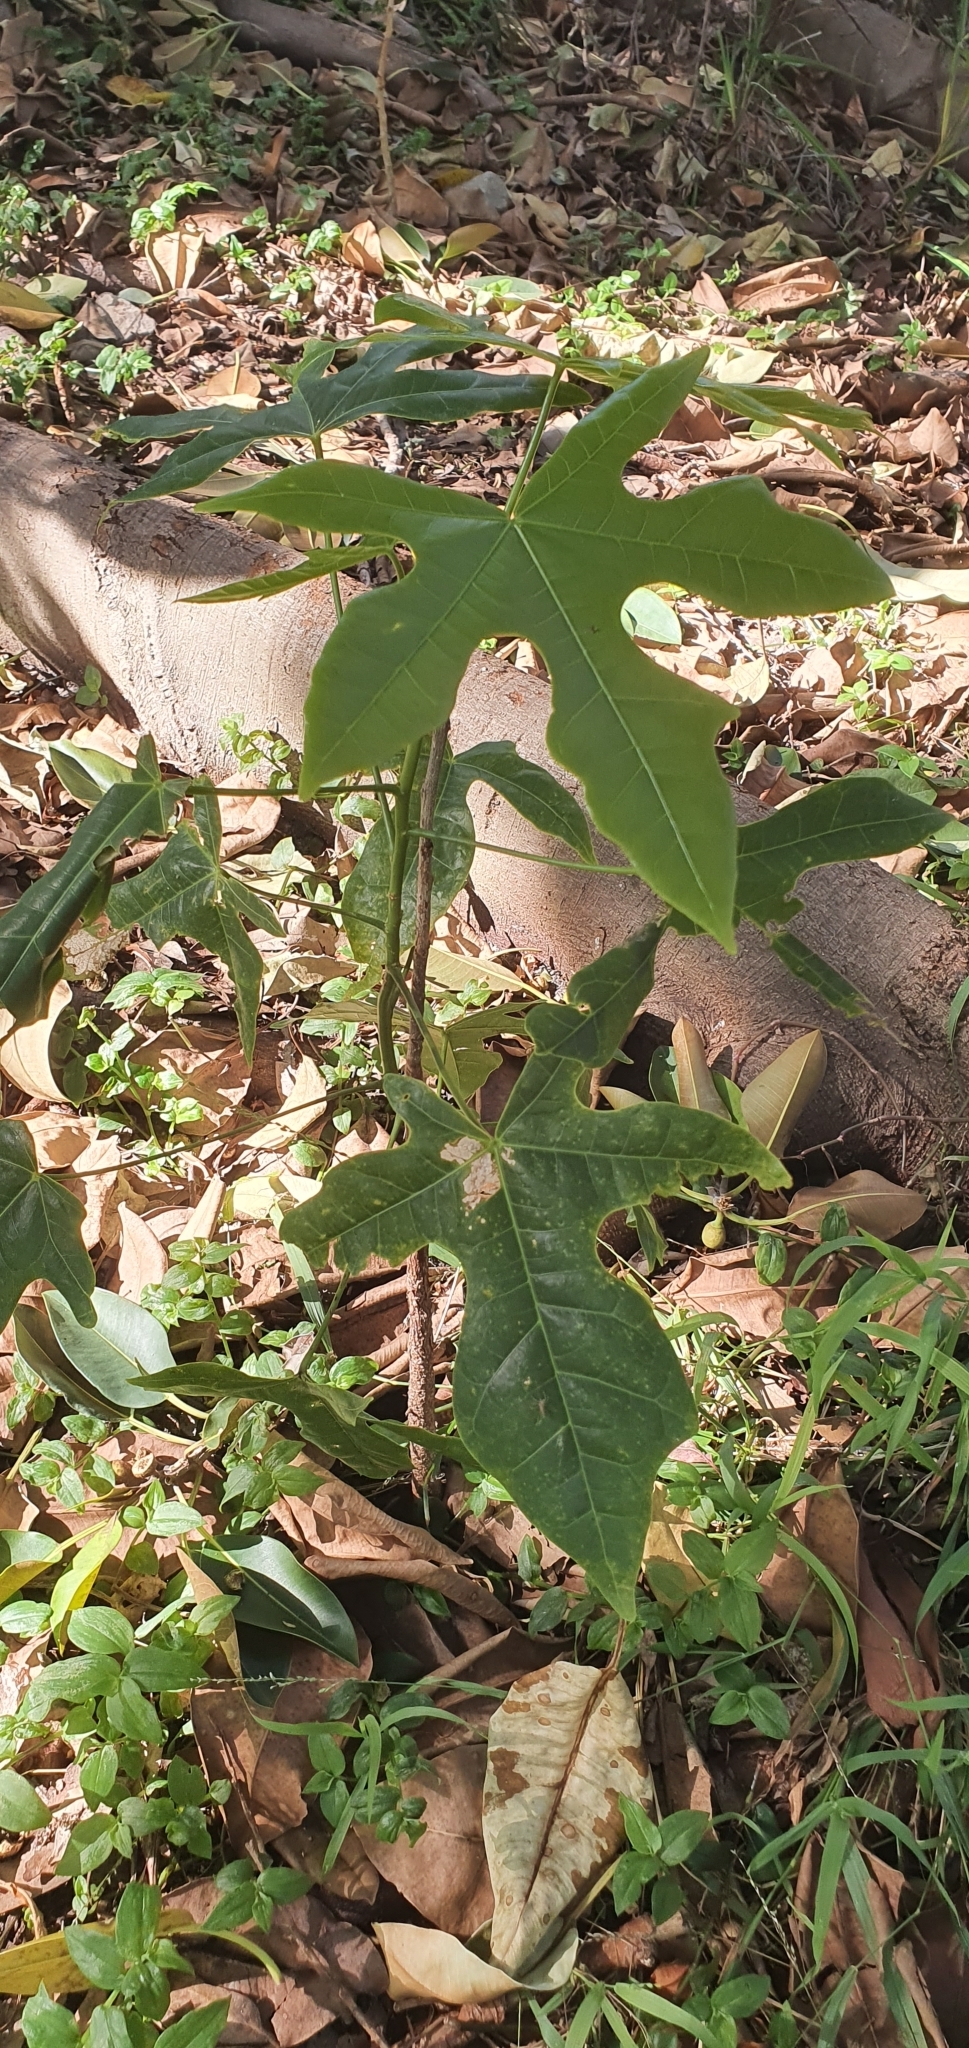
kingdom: Plantae
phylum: Tracheophyta
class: Magnoliopsida
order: Malvales
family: Malvaceae
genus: Brachychiton
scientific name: Brachychiton acerifolius
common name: Illawarra flame tree
